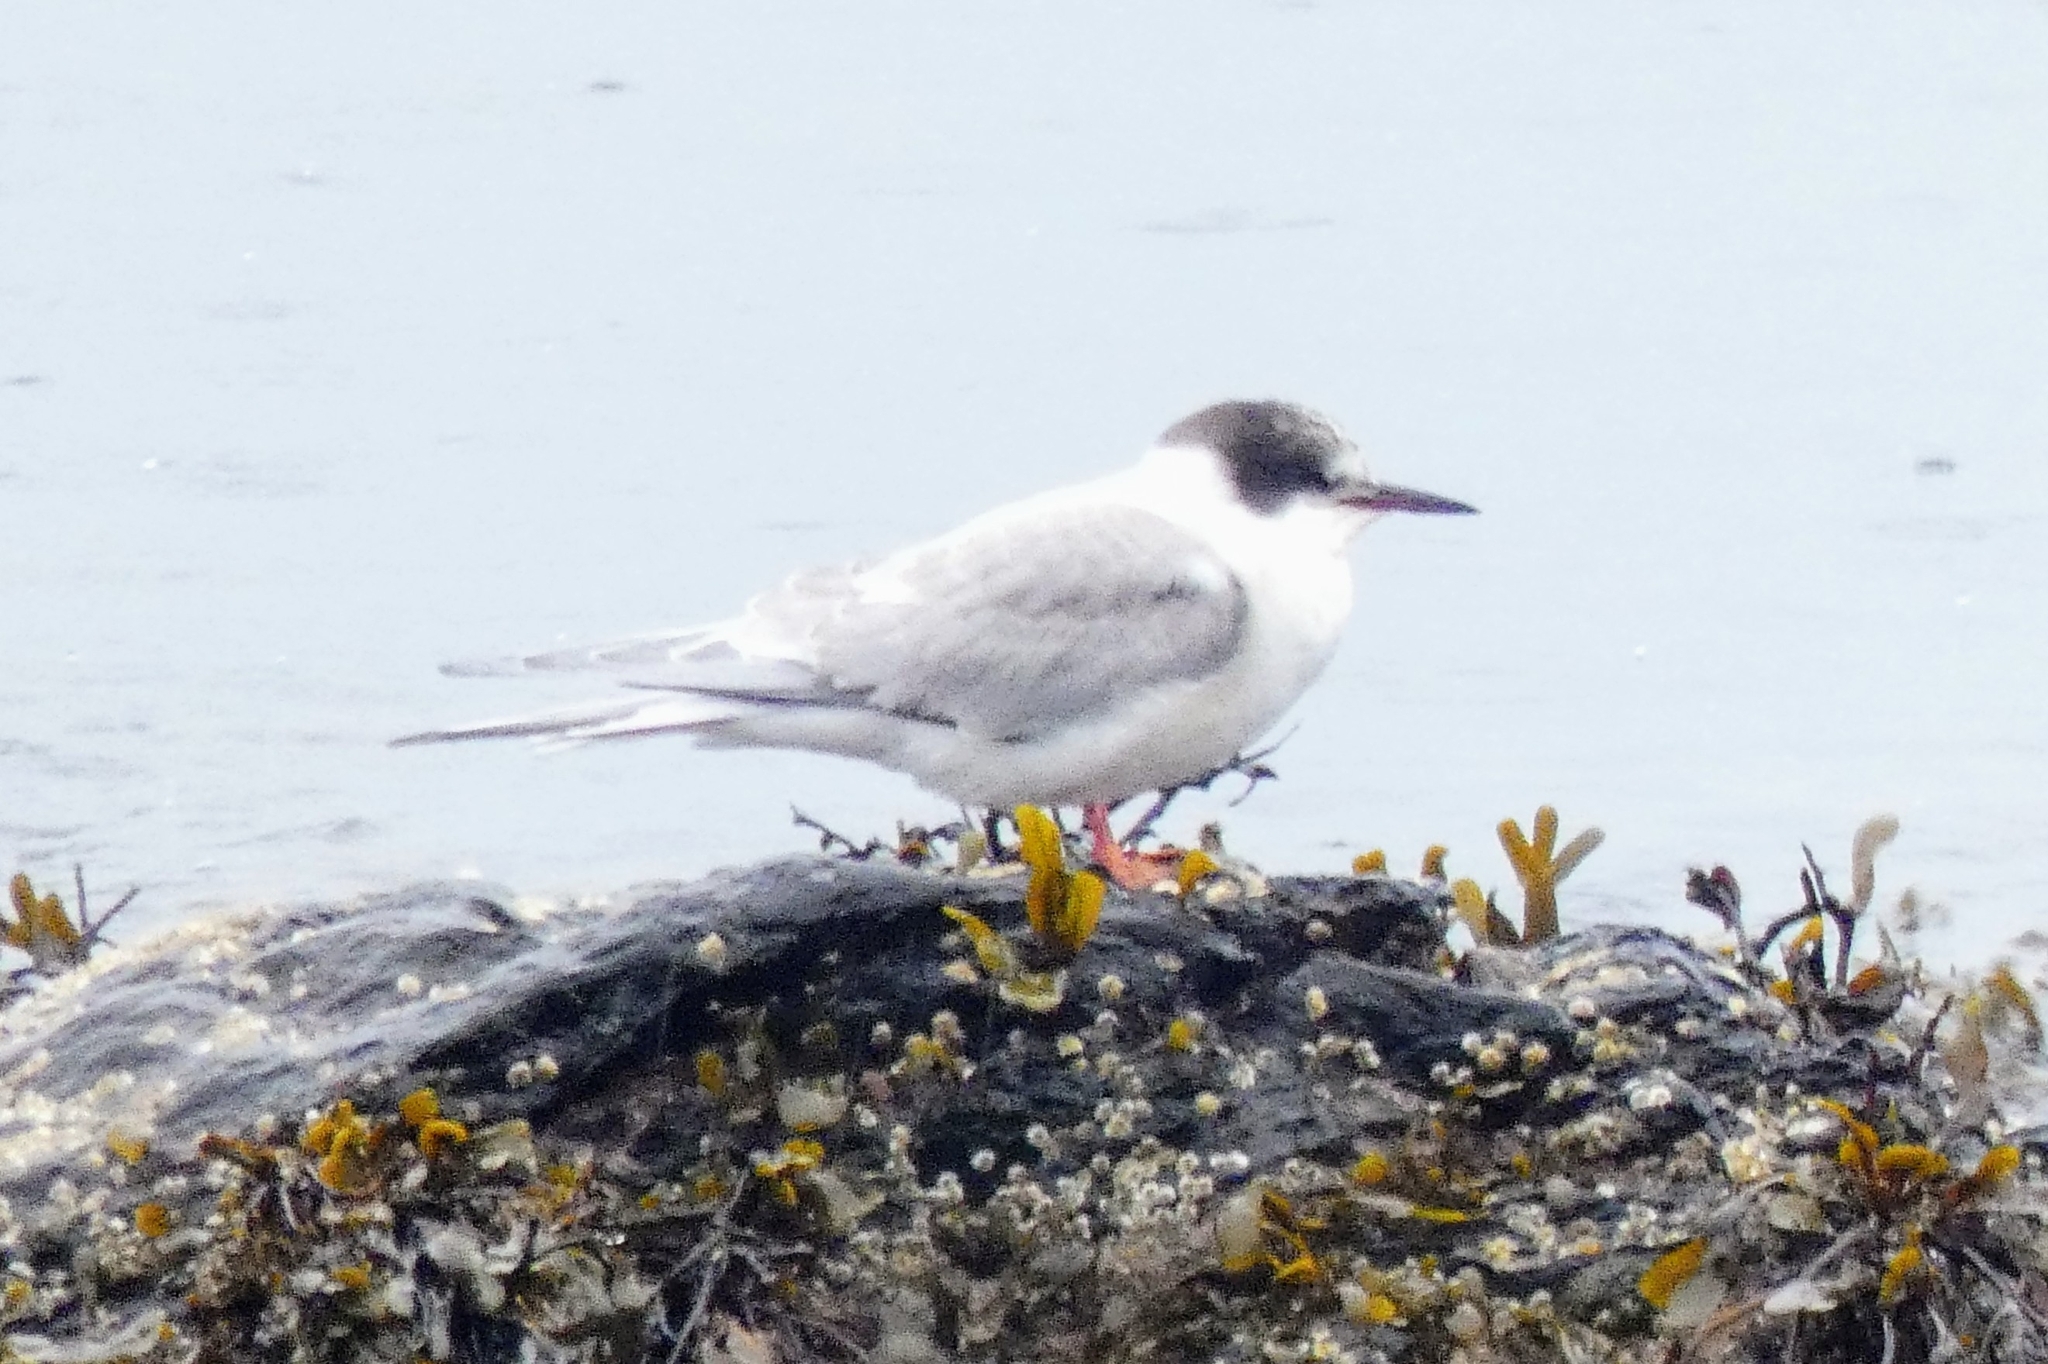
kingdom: Animalia
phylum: Chordata
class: Aves
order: Charadriiformes
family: Laridae
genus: Sterna
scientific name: Sterna hirundo
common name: Common tern
